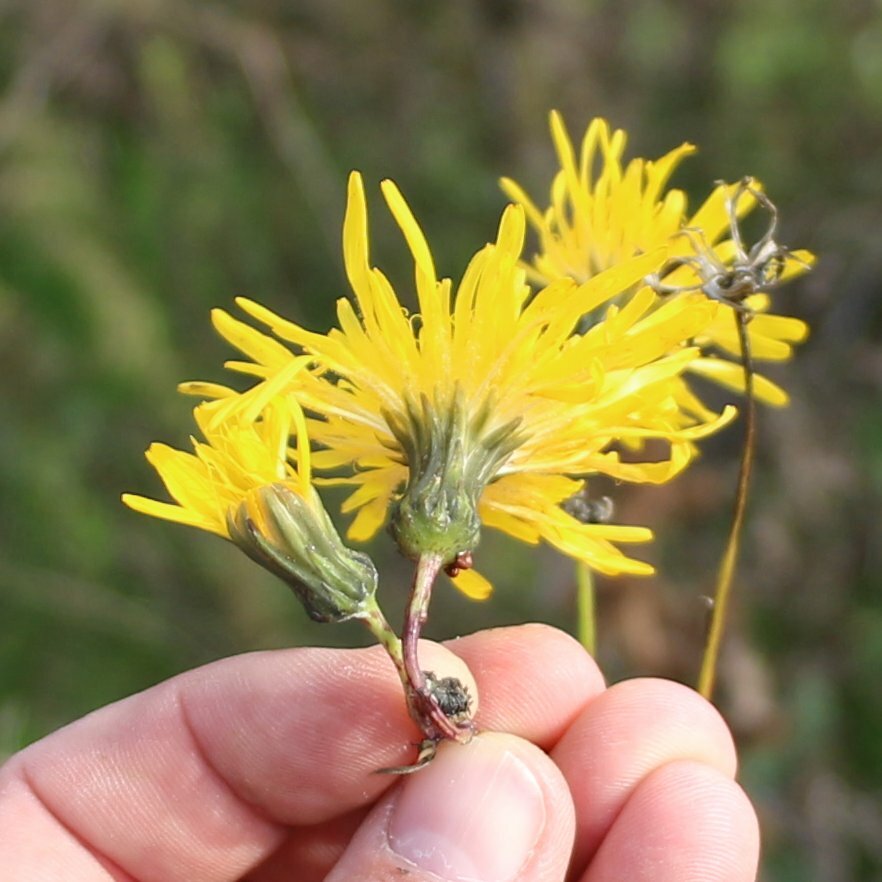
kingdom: Plantae
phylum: Tracheophyta
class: Magnoliopsida
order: Asterales
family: Asteraceae
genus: Sonchus
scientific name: Sonchus arvensis
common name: Perennial sow-thistle
